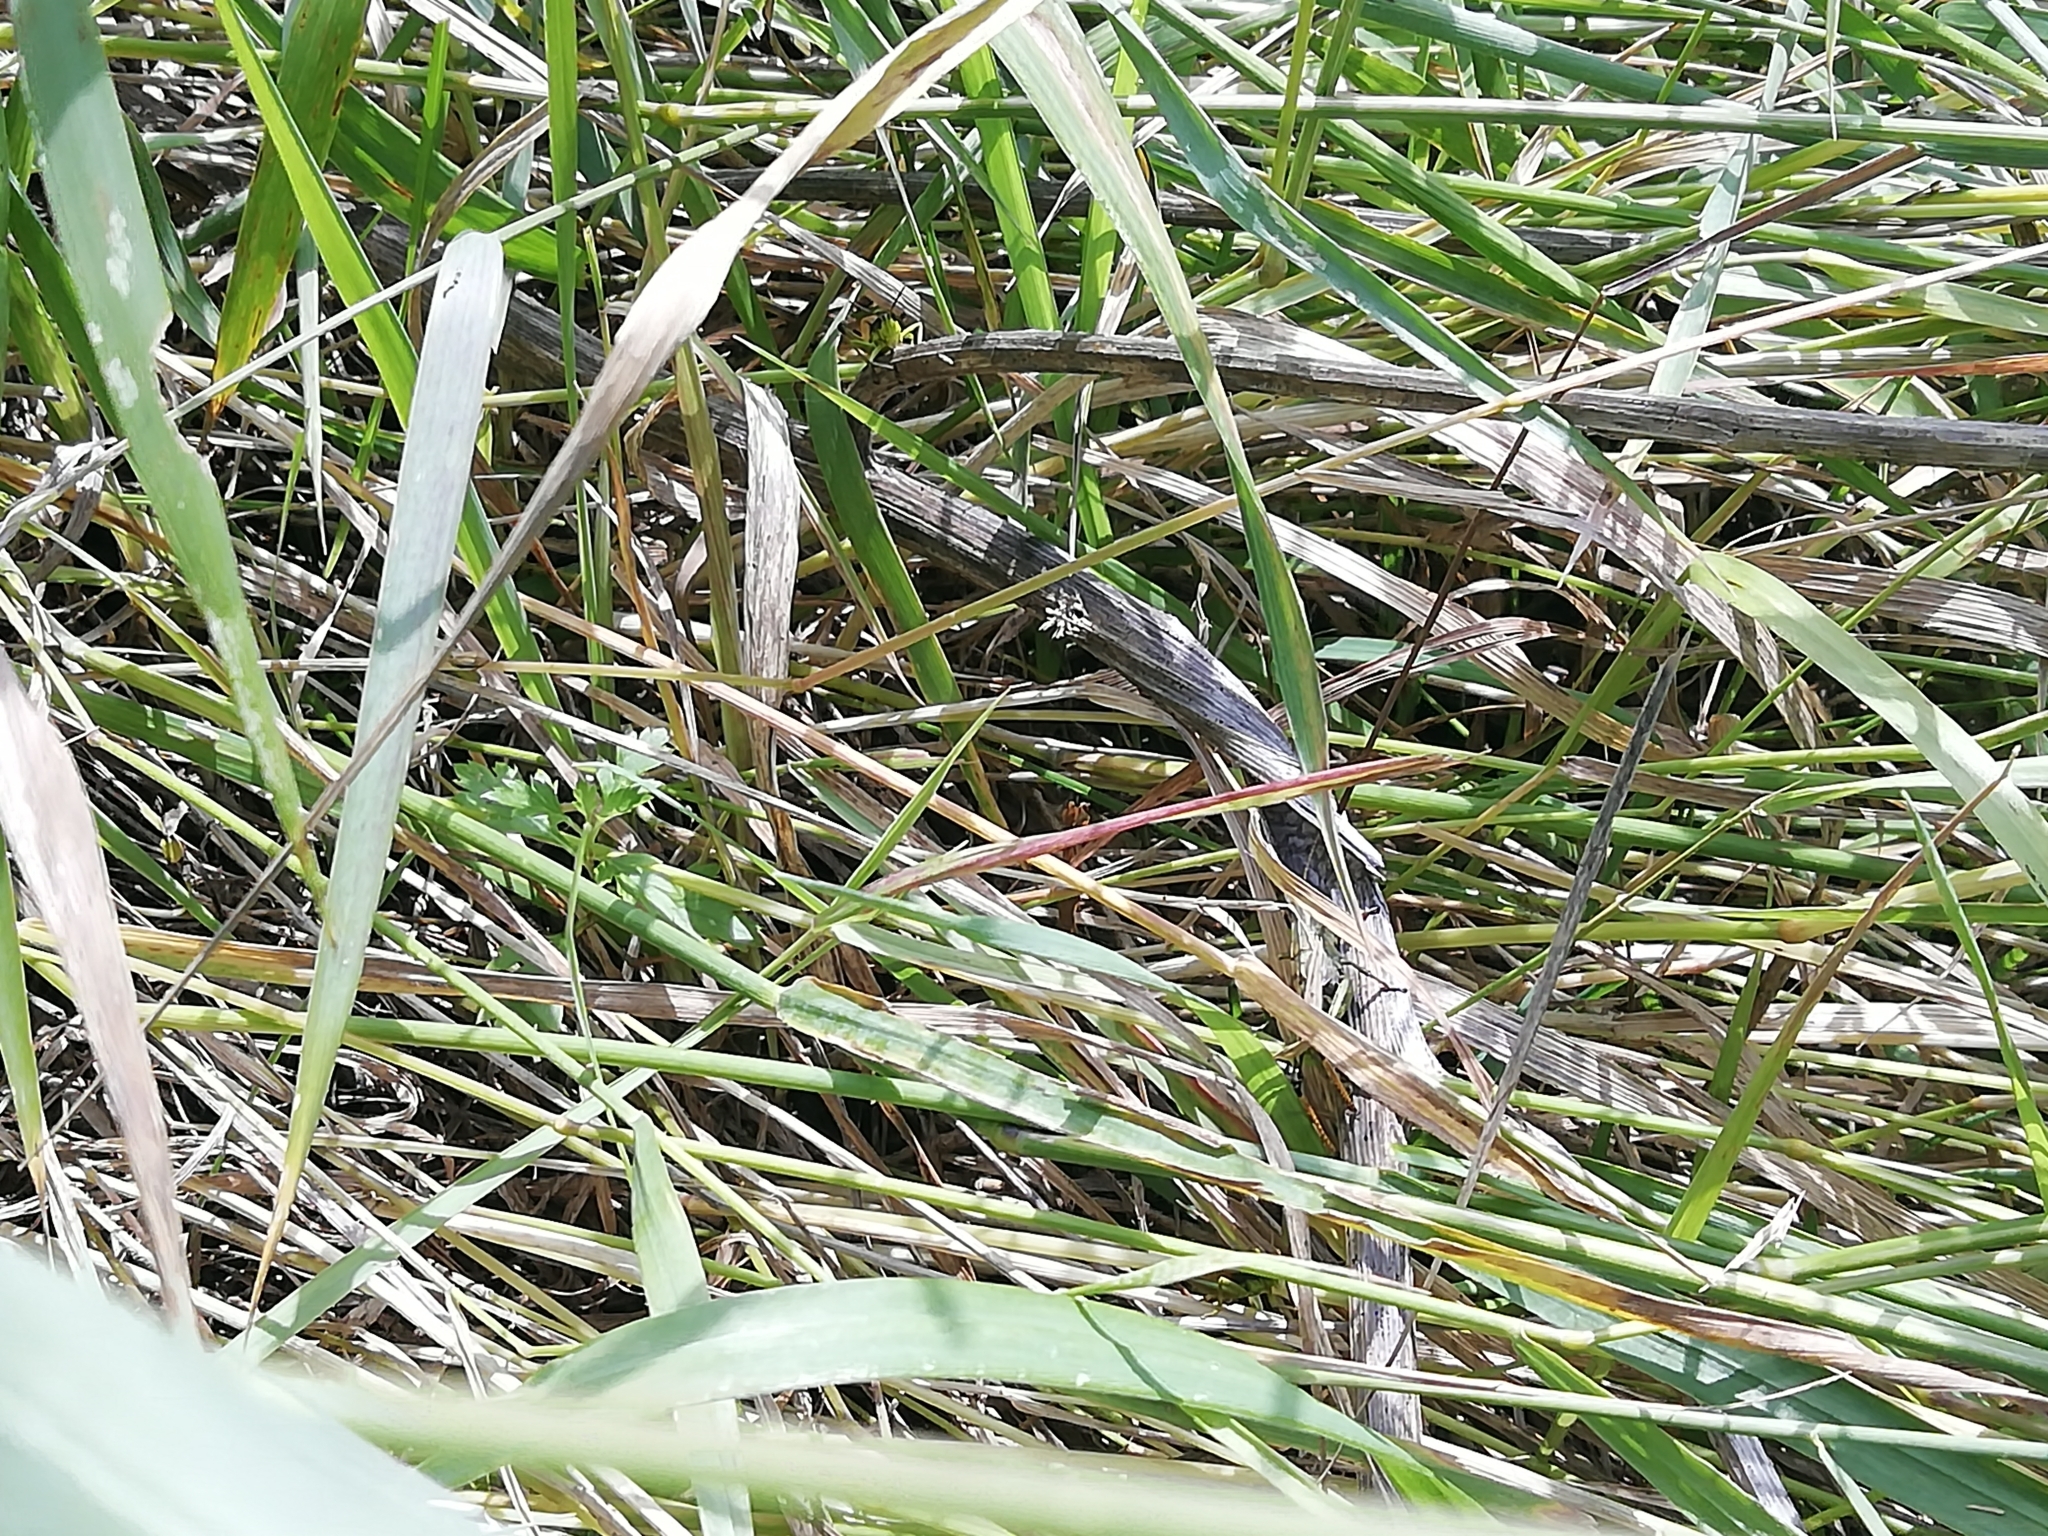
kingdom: Animalia
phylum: Arthropoda
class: Insecta
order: Orthoptera
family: Acrididae
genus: Podismopsis
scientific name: Podismopsis poppiusi
